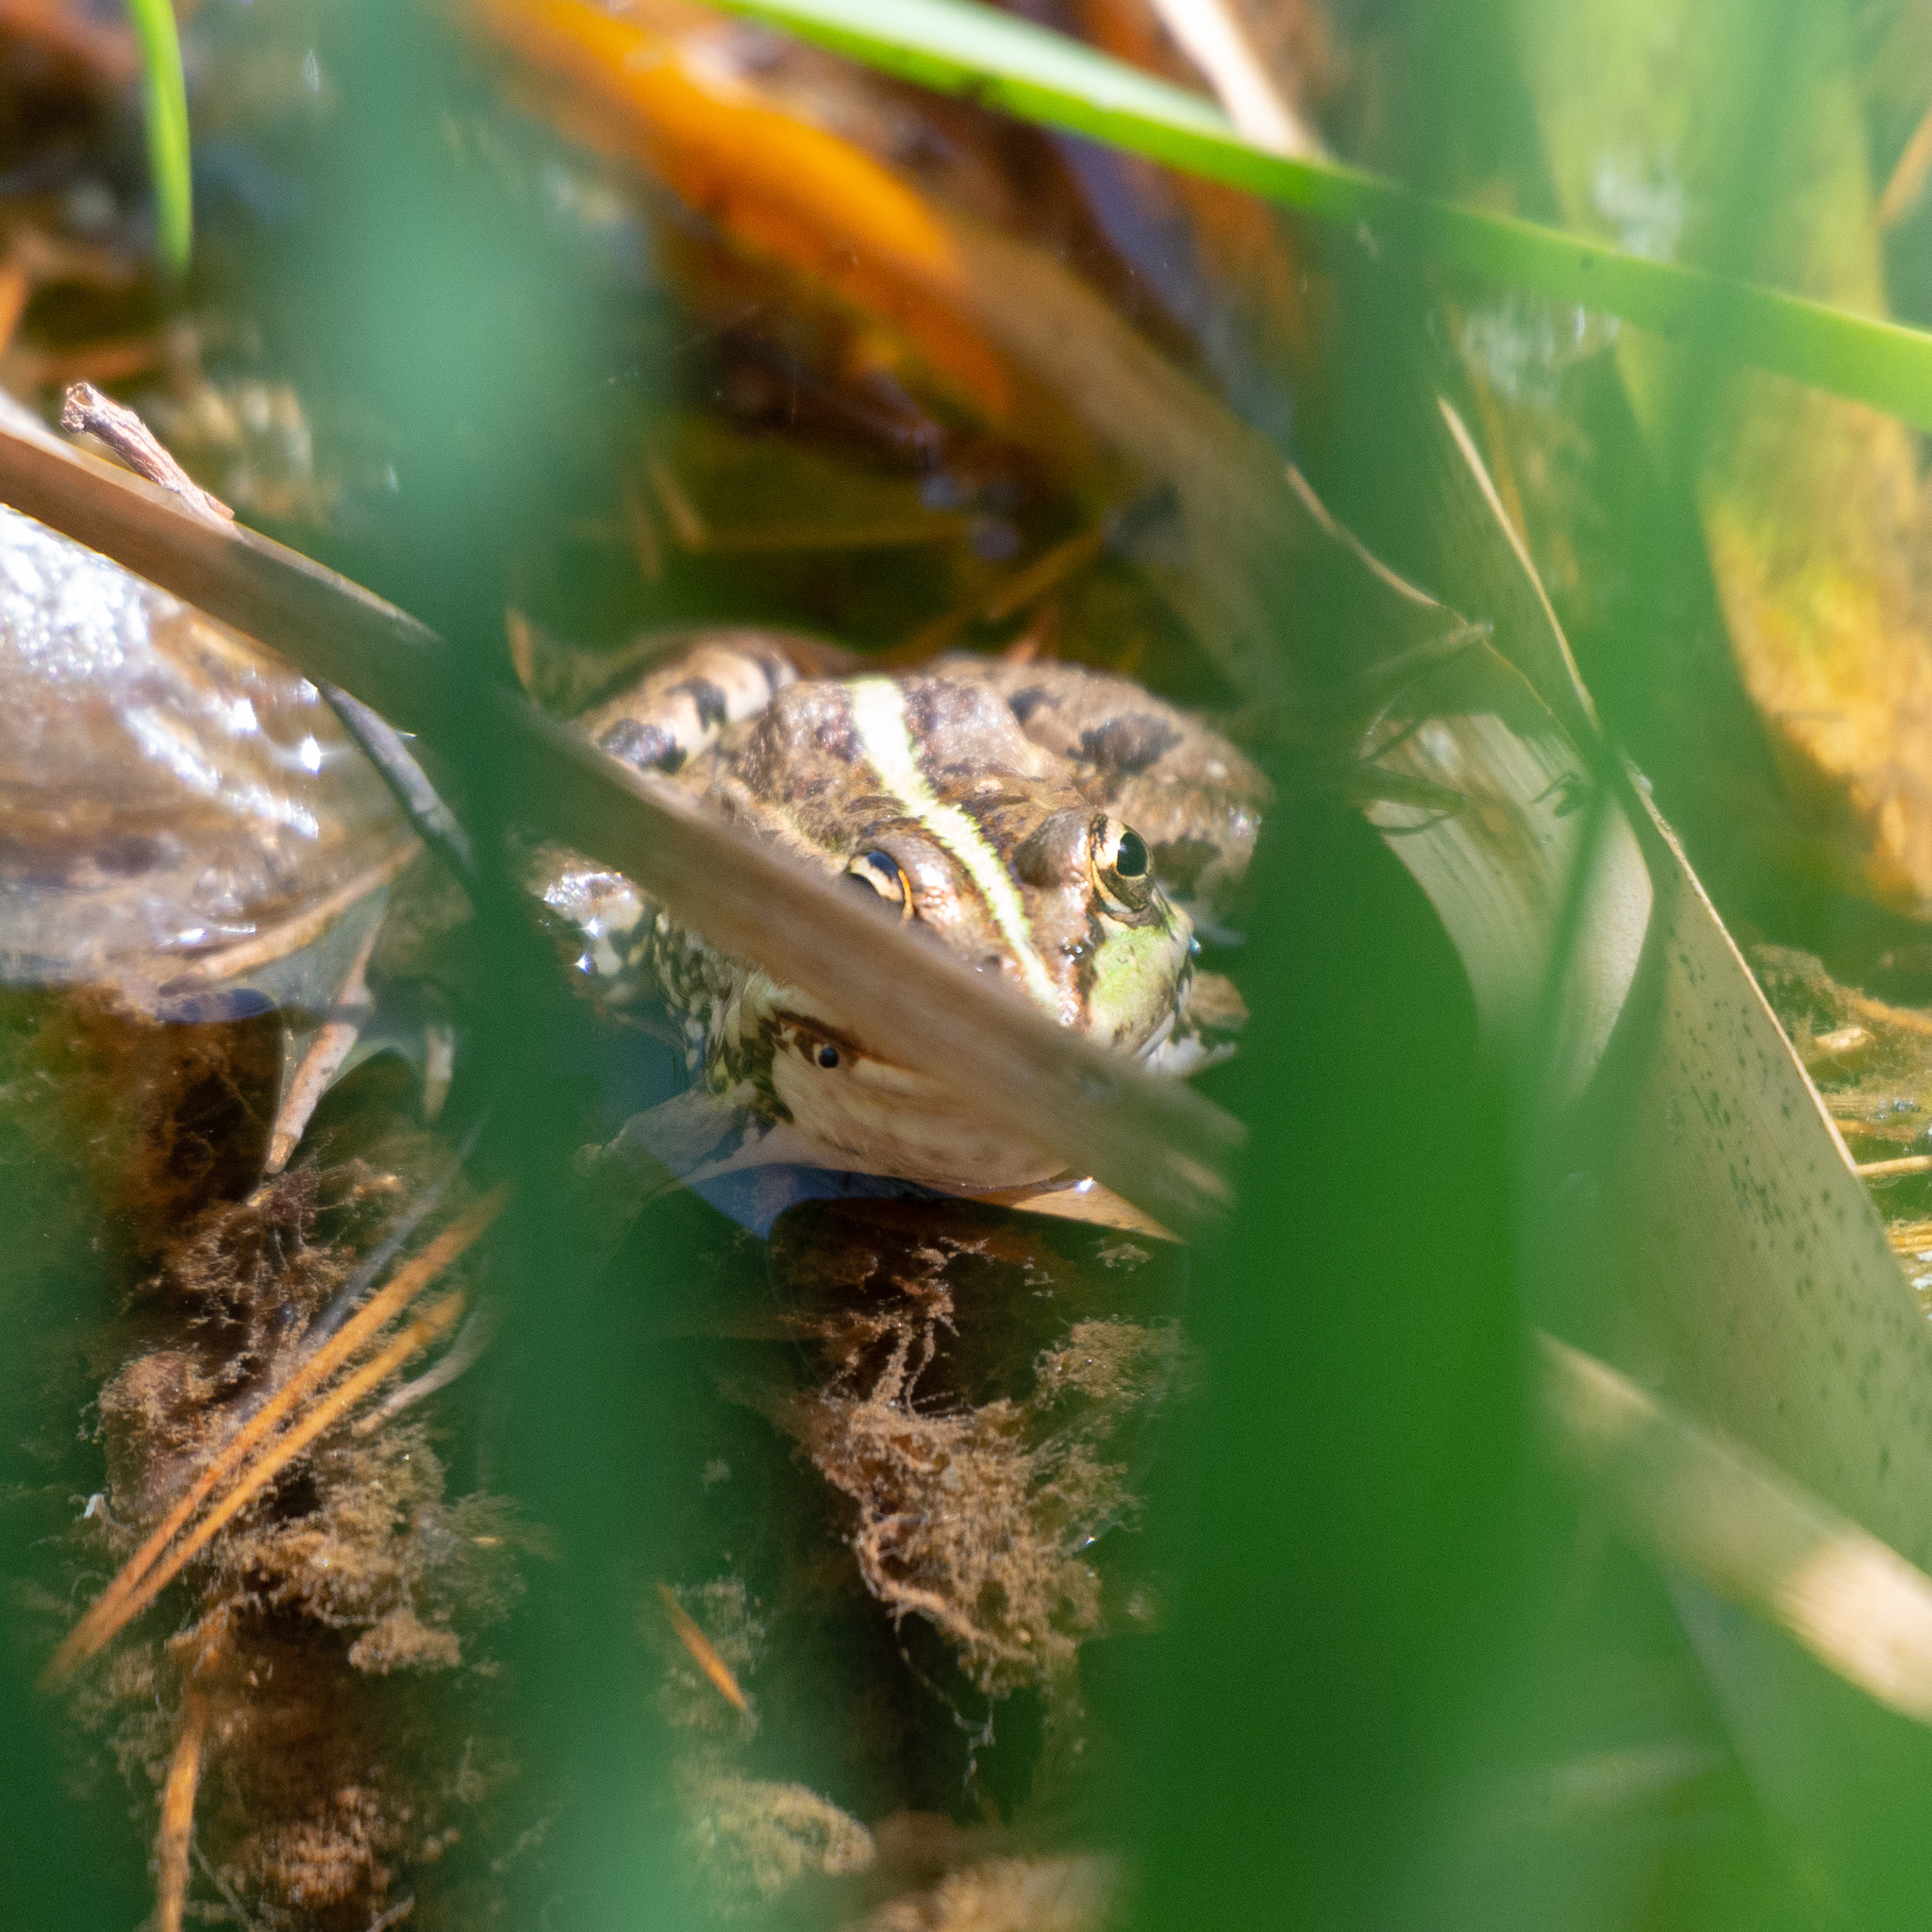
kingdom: Animalia
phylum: Chordata
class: Amphibia
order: Anura
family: Ranidae
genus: Pelophylax
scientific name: Pelophylax perezi
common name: Perez's frog
